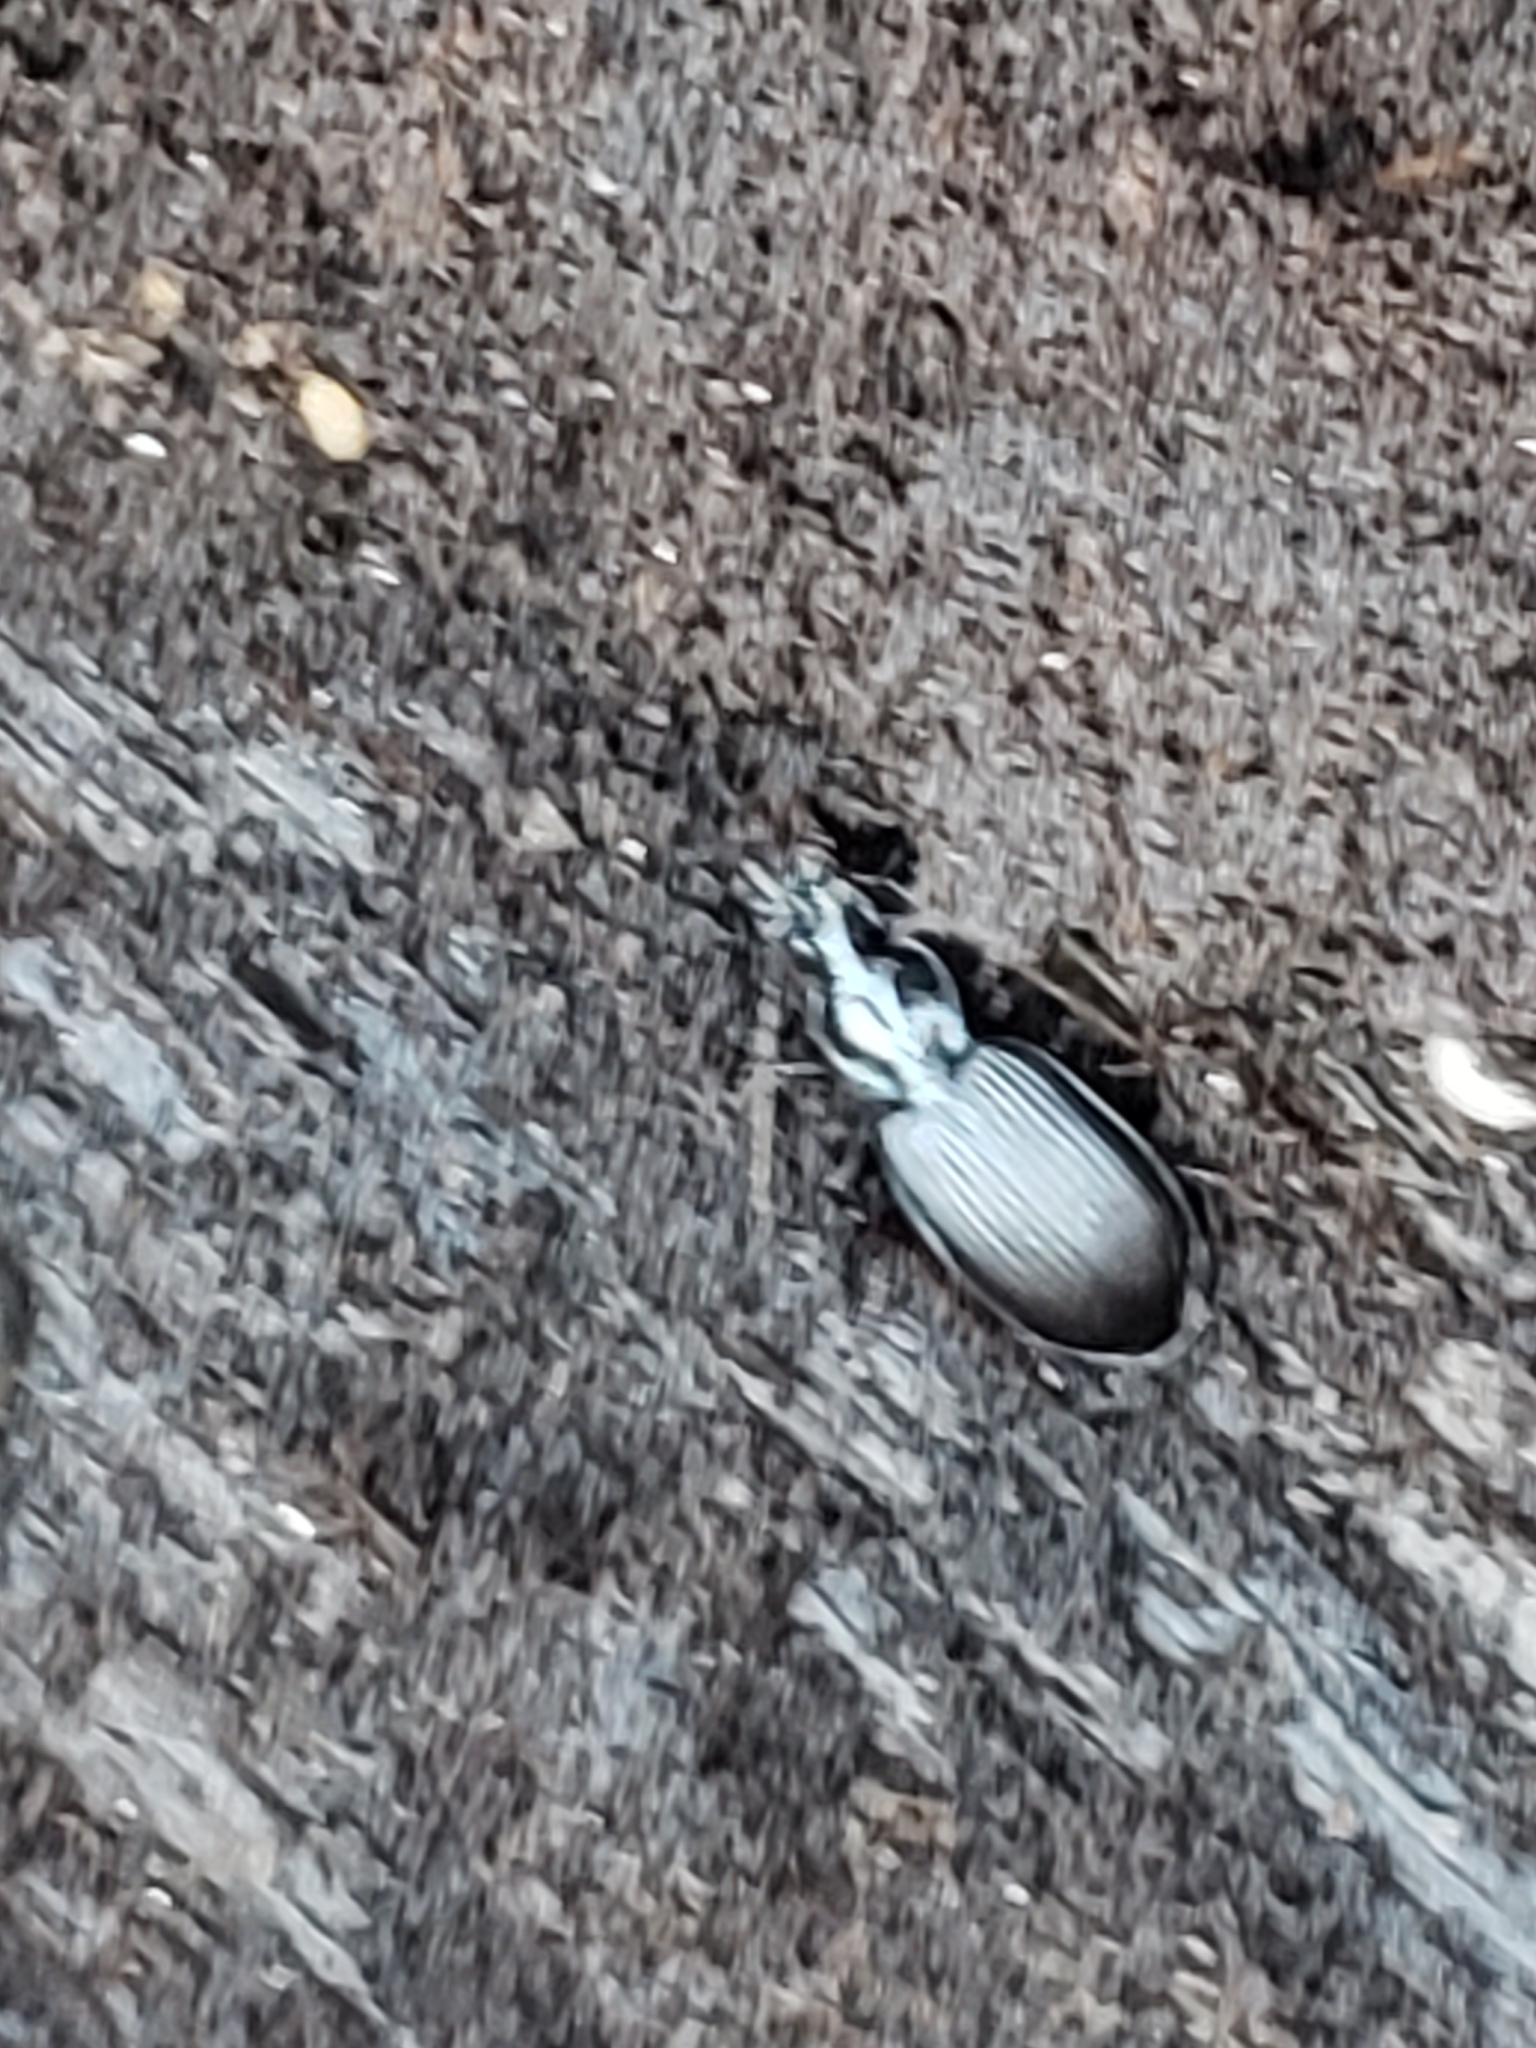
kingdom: Animalia
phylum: Arthropoda
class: Insecta
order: Coleoptera
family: Carabidae
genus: Platynus
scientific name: Platynus decentis
